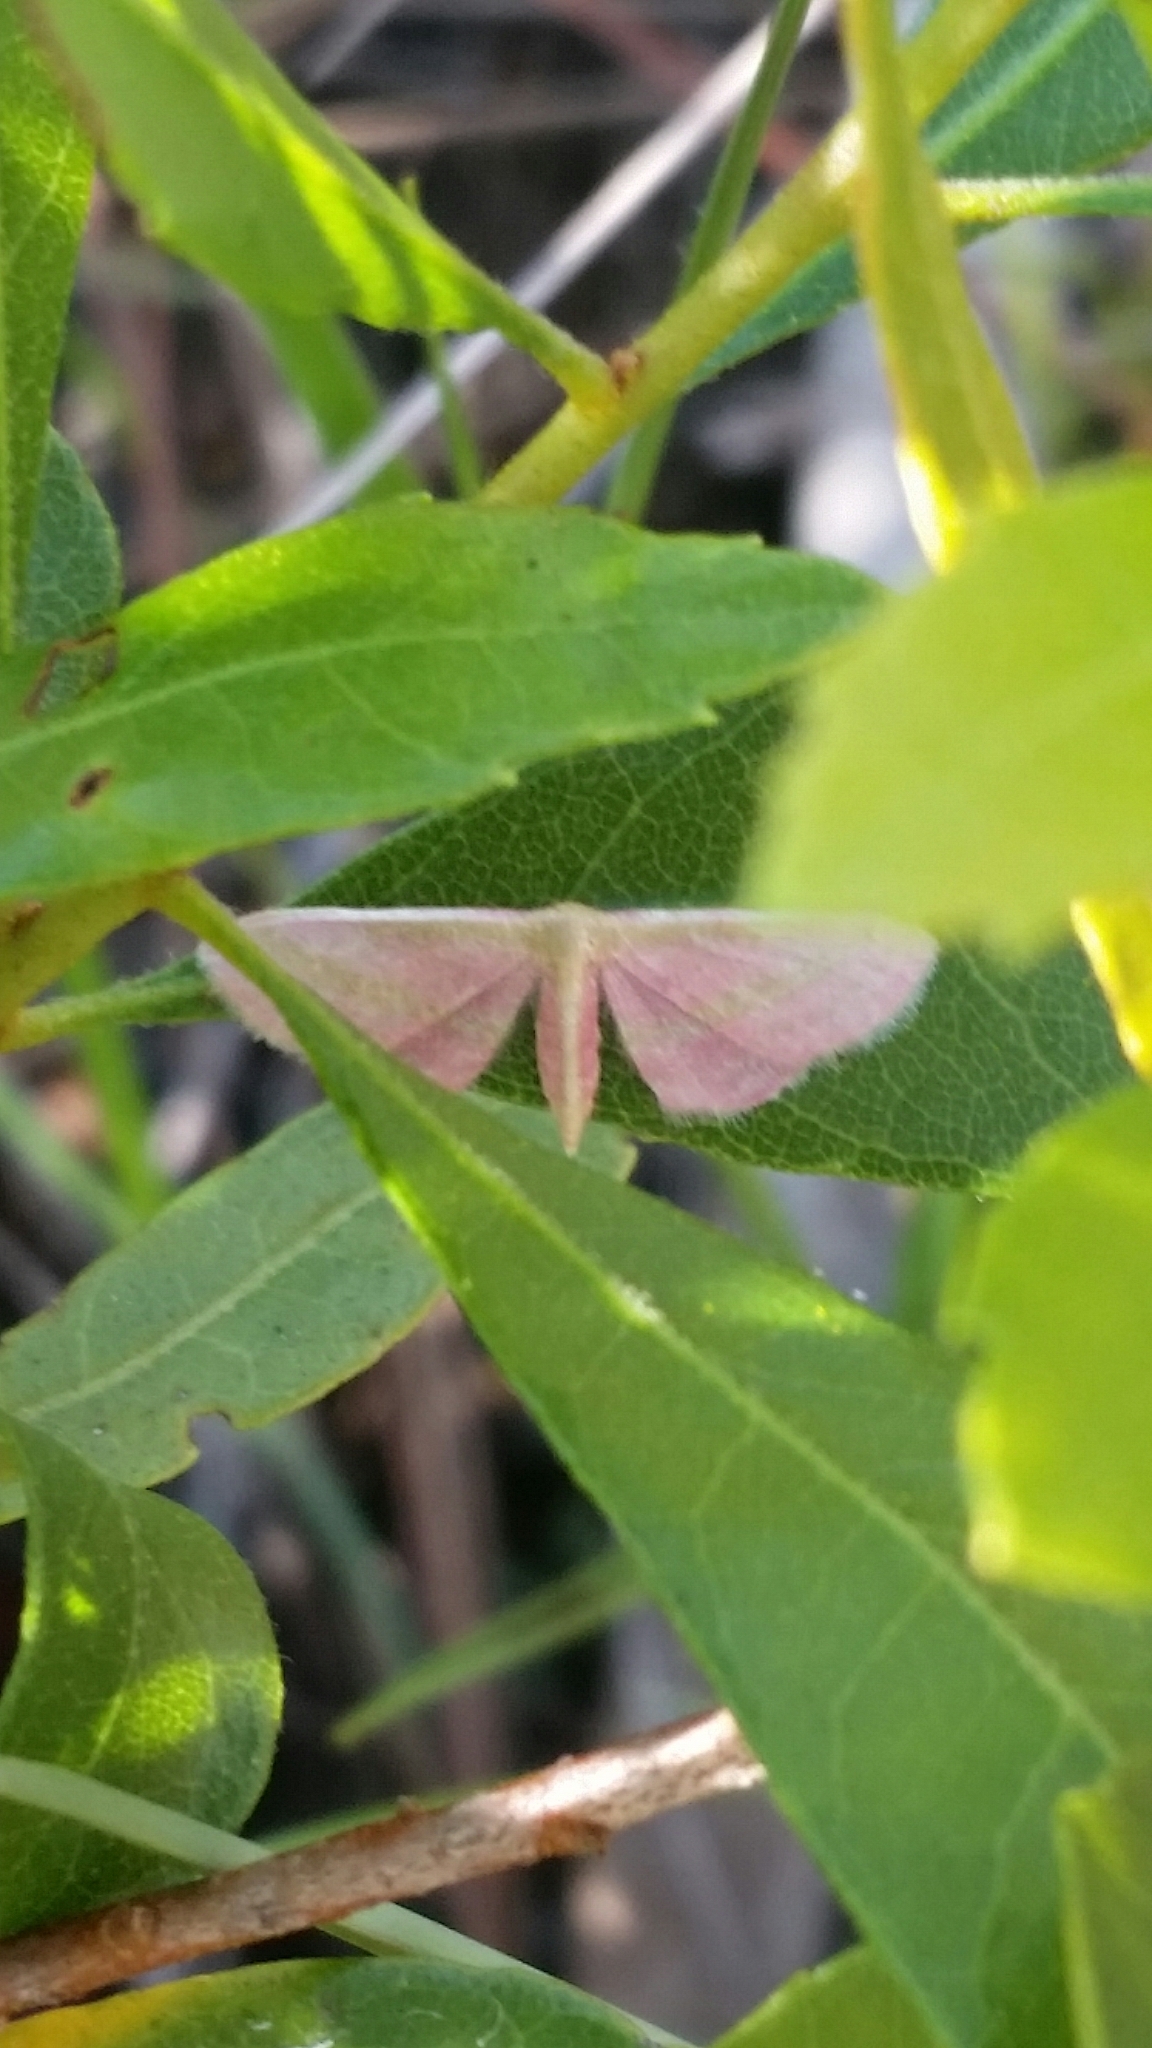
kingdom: Animalia
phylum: Arthropoda
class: Insecta
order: Lepidoptera
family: Geometridae
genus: Leptostales
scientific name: Leptostales laevitaria
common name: Raspberry wave moth
